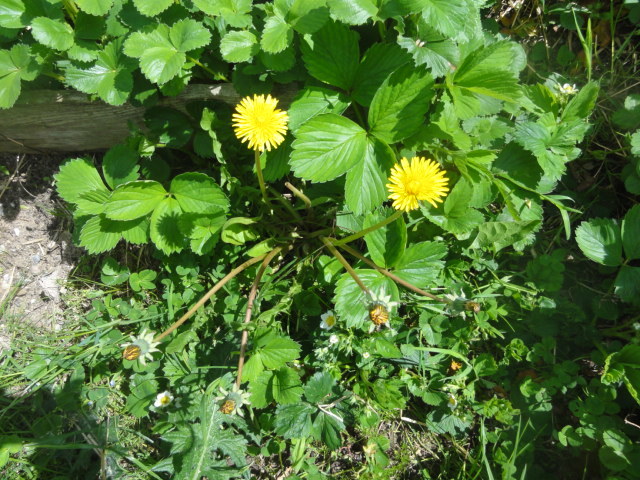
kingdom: Plantae
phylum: Tracheophyta
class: Magnoliopsida
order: Asterales
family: Asteraceae
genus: Taraxacum
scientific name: Taraxacum
